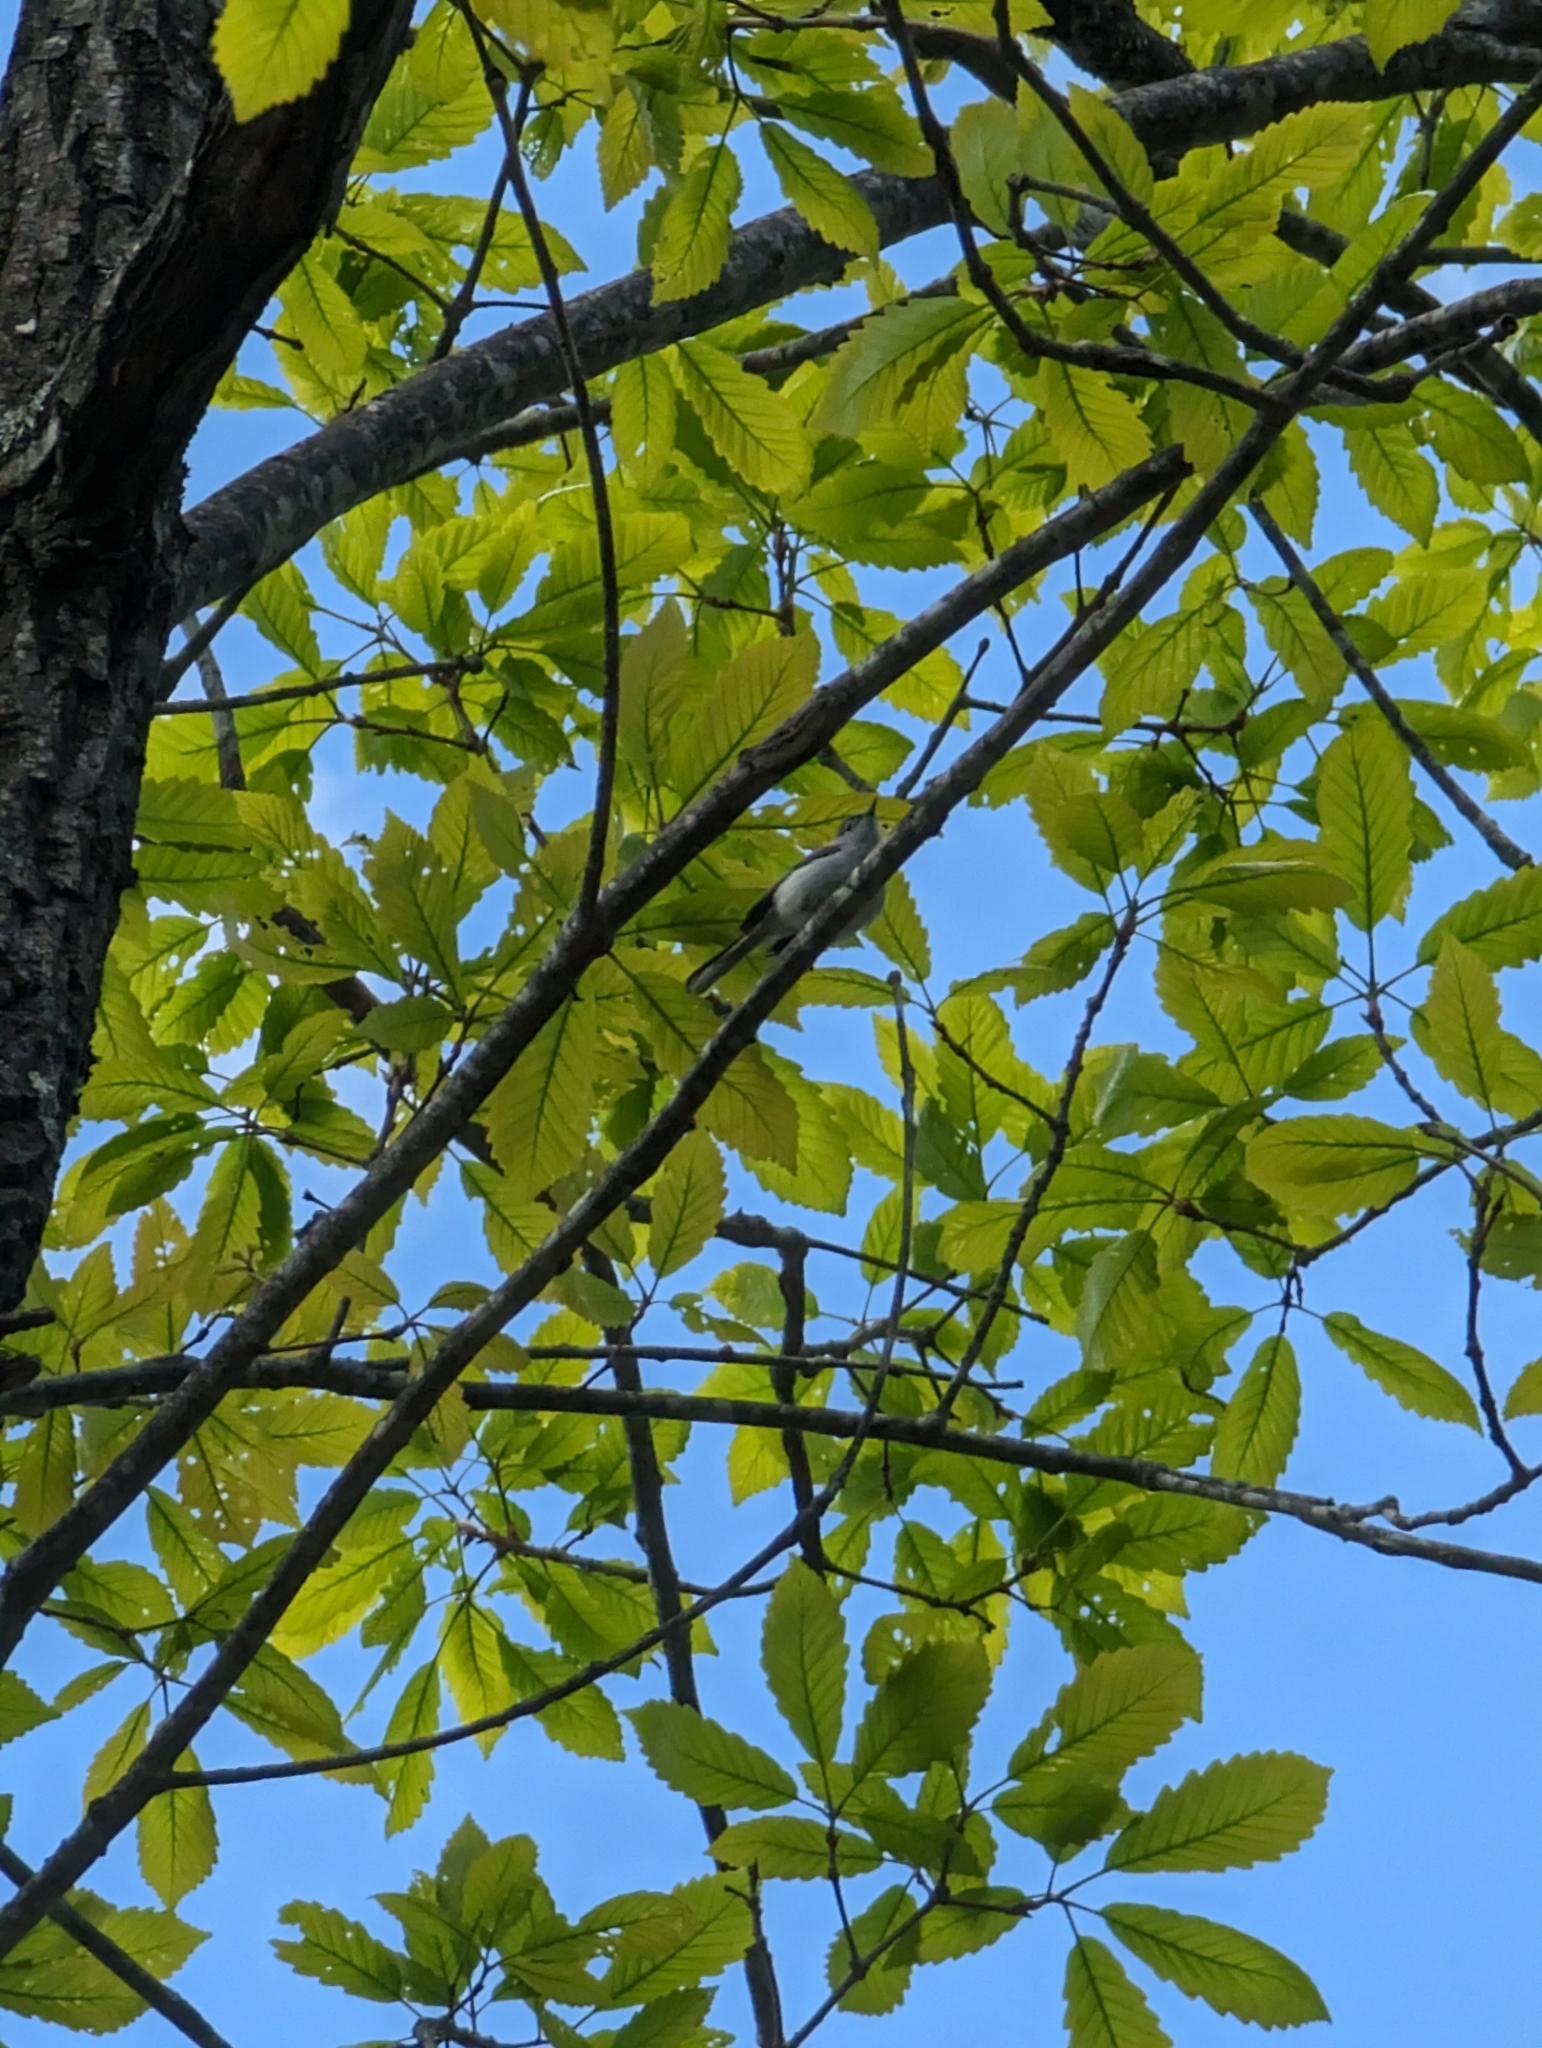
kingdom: Animalia
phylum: Chordata
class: Aves
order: Passeriformes
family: Polioptilidae
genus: Polioptila
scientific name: Polioptila caerulea
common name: Blue-gray gnatcatcher
